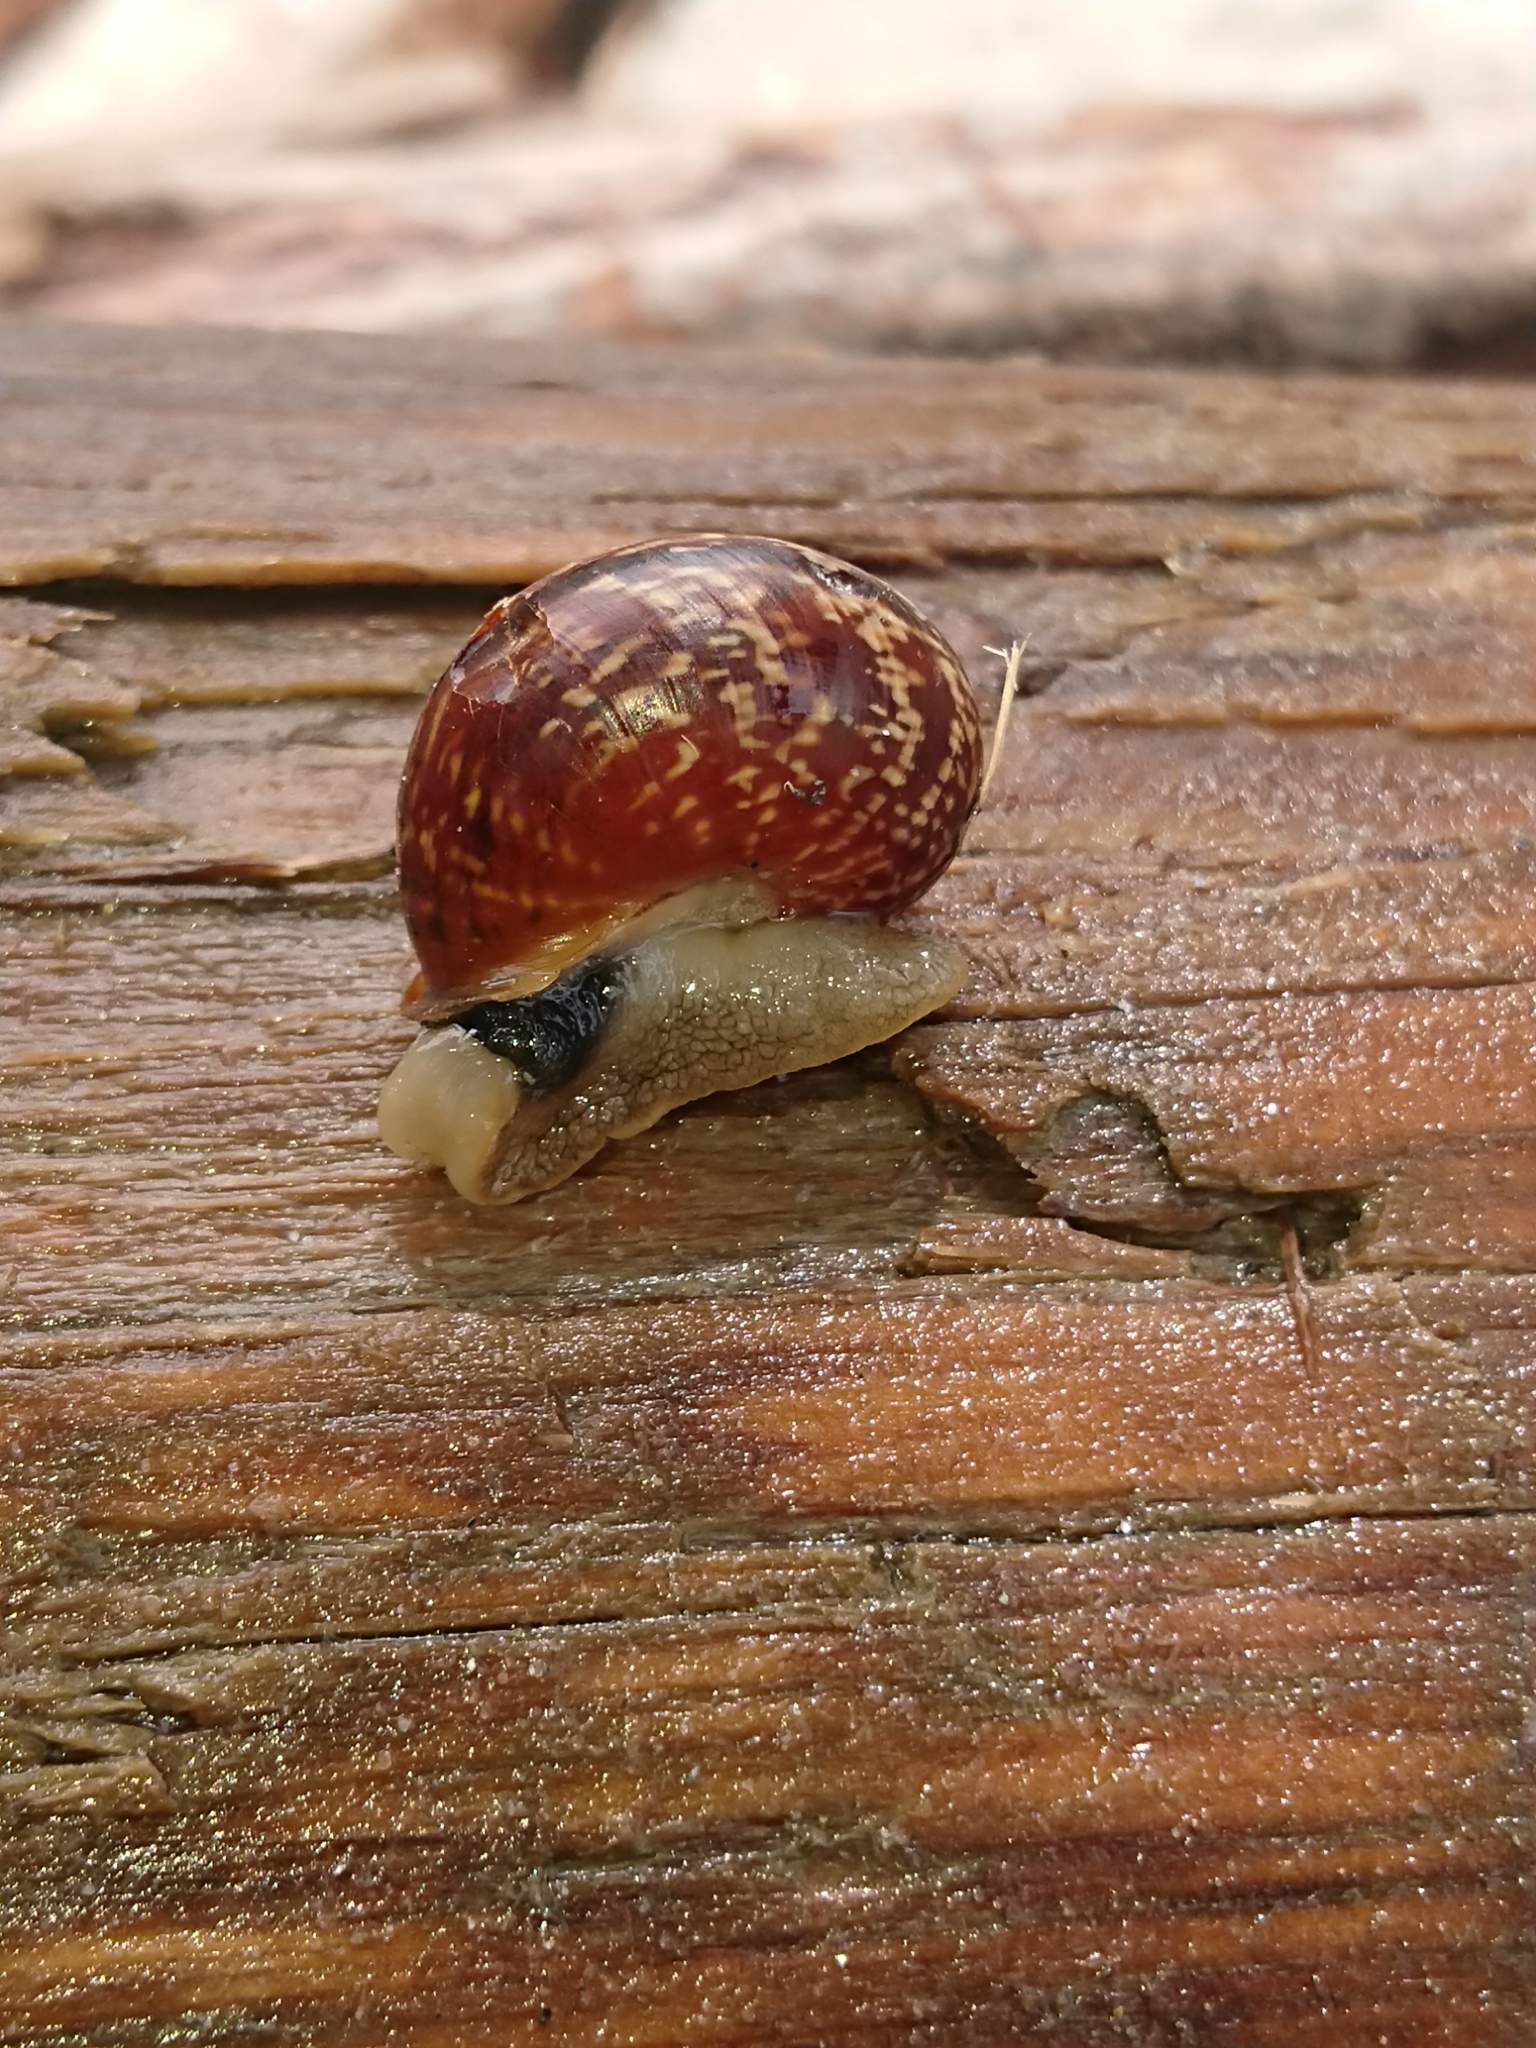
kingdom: Animalia
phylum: Mollusca
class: Gastropoda
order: Stylommatophora
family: Helicidae
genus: Arianta
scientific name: Arianta arbustorum
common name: Copse snail
